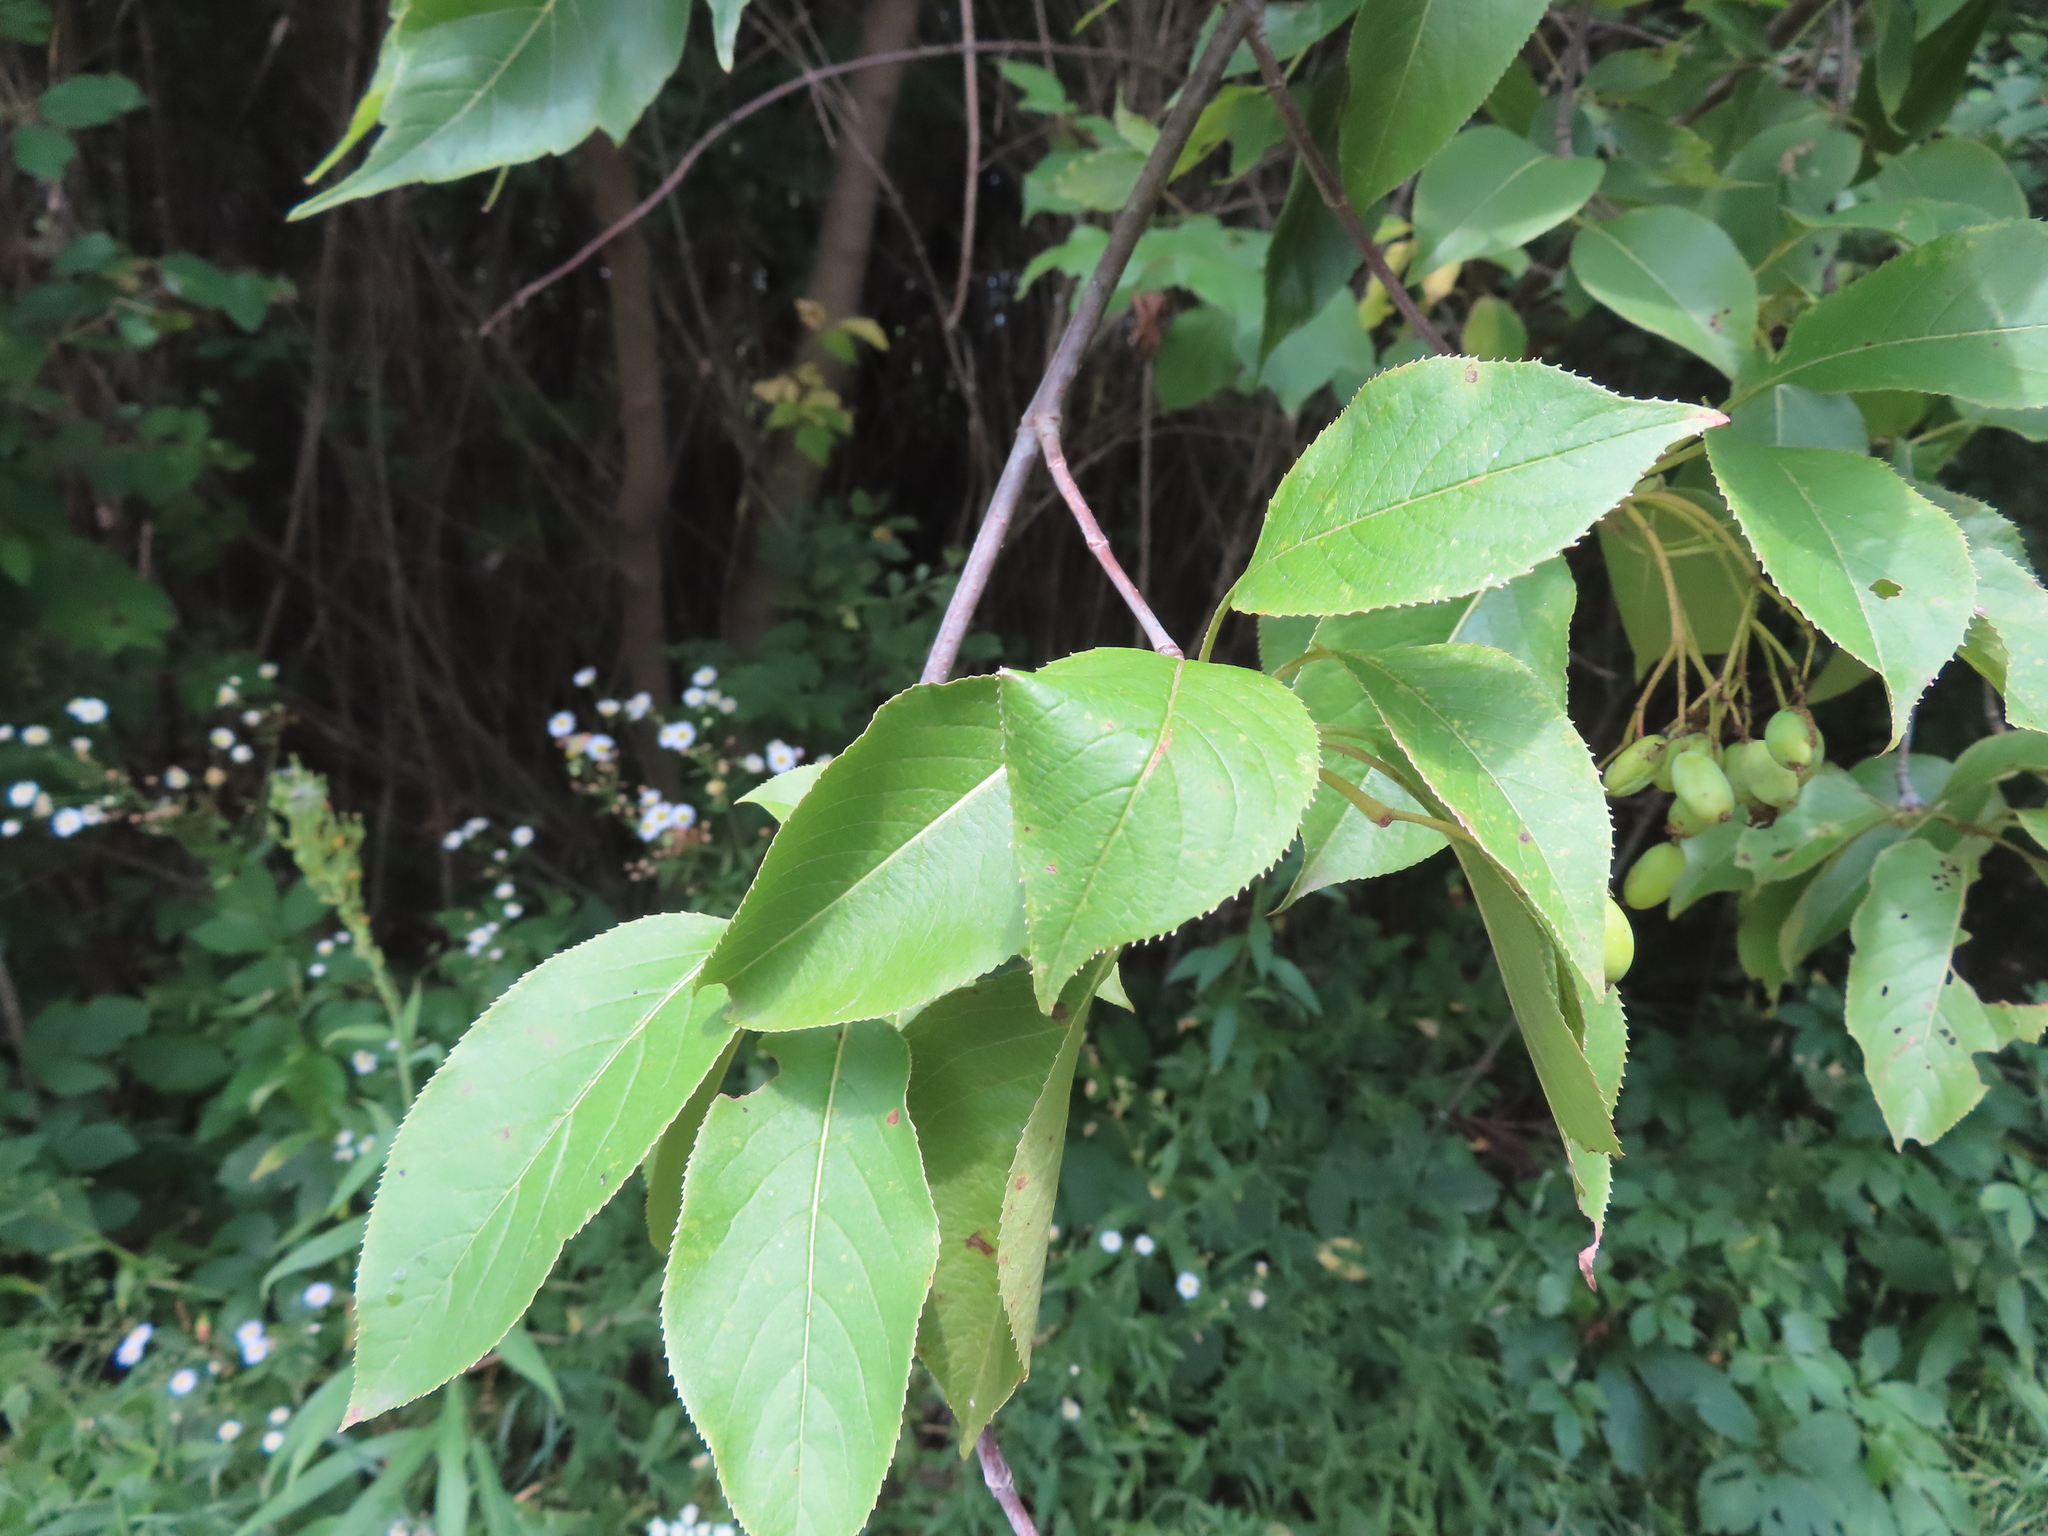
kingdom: Plantae
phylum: Tracheophyta
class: Magnoliopsida
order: Dipsacales
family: Viburnaceae
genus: Viburnum
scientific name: Viburnum lentago
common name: Black haw
